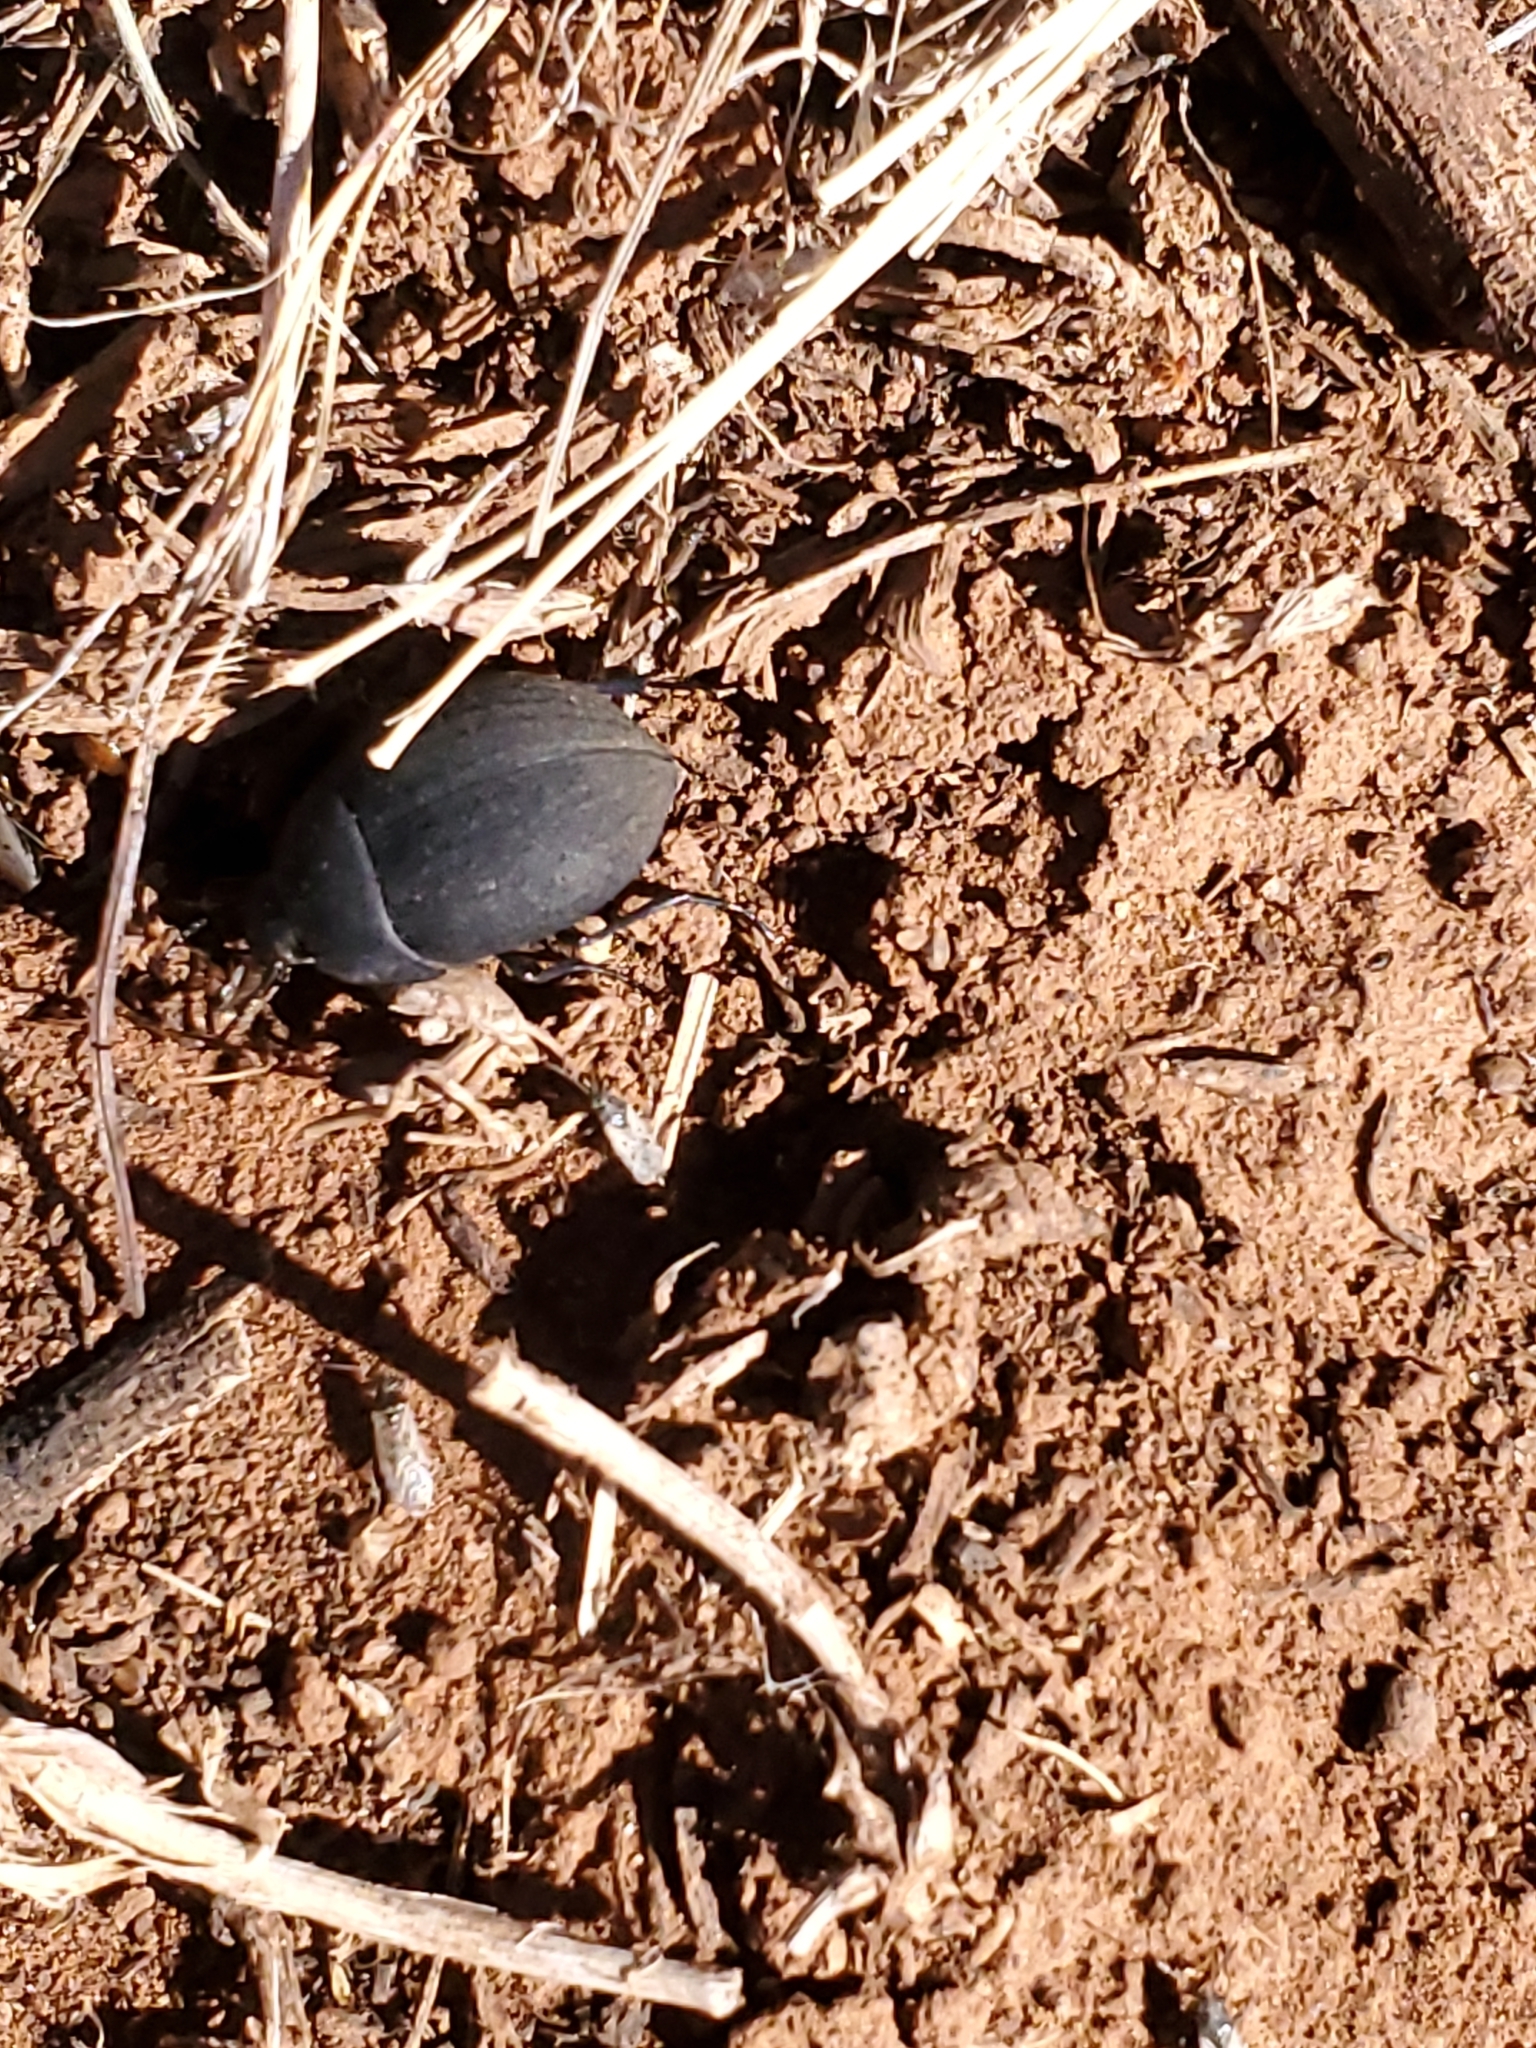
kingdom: Animalia
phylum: Arthropoda
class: Insecta
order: Coleoptera
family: Tenebrionidae
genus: Eusattus
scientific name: Eusattus reticulatus
